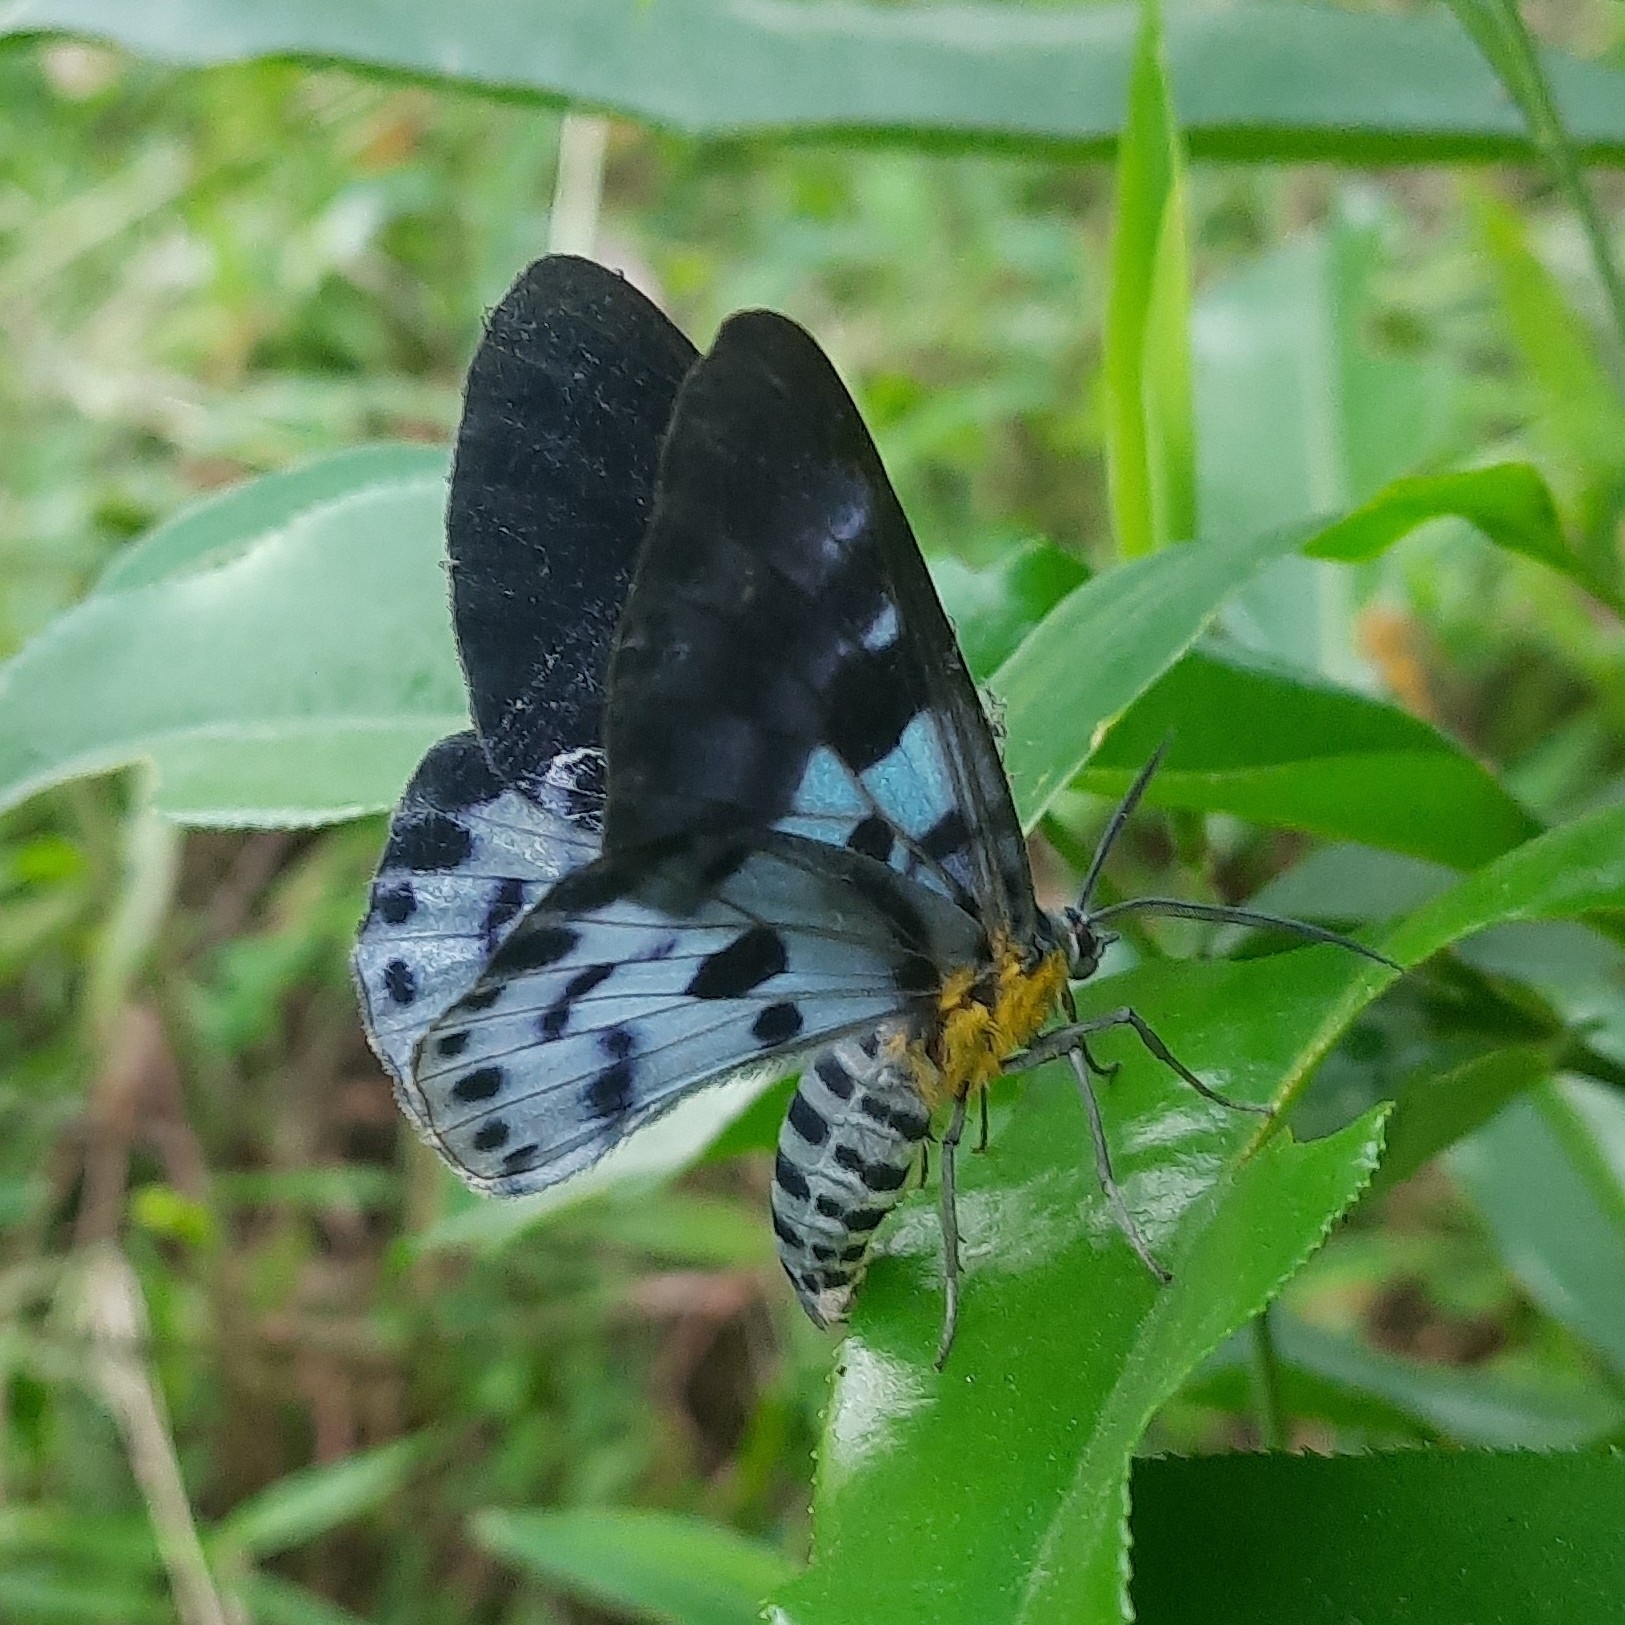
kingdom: Animalia
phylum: Arthropoda
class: Insecta
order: Lepidoptera
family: Geometridae
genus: Dysphania
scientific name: Dysphania percota
